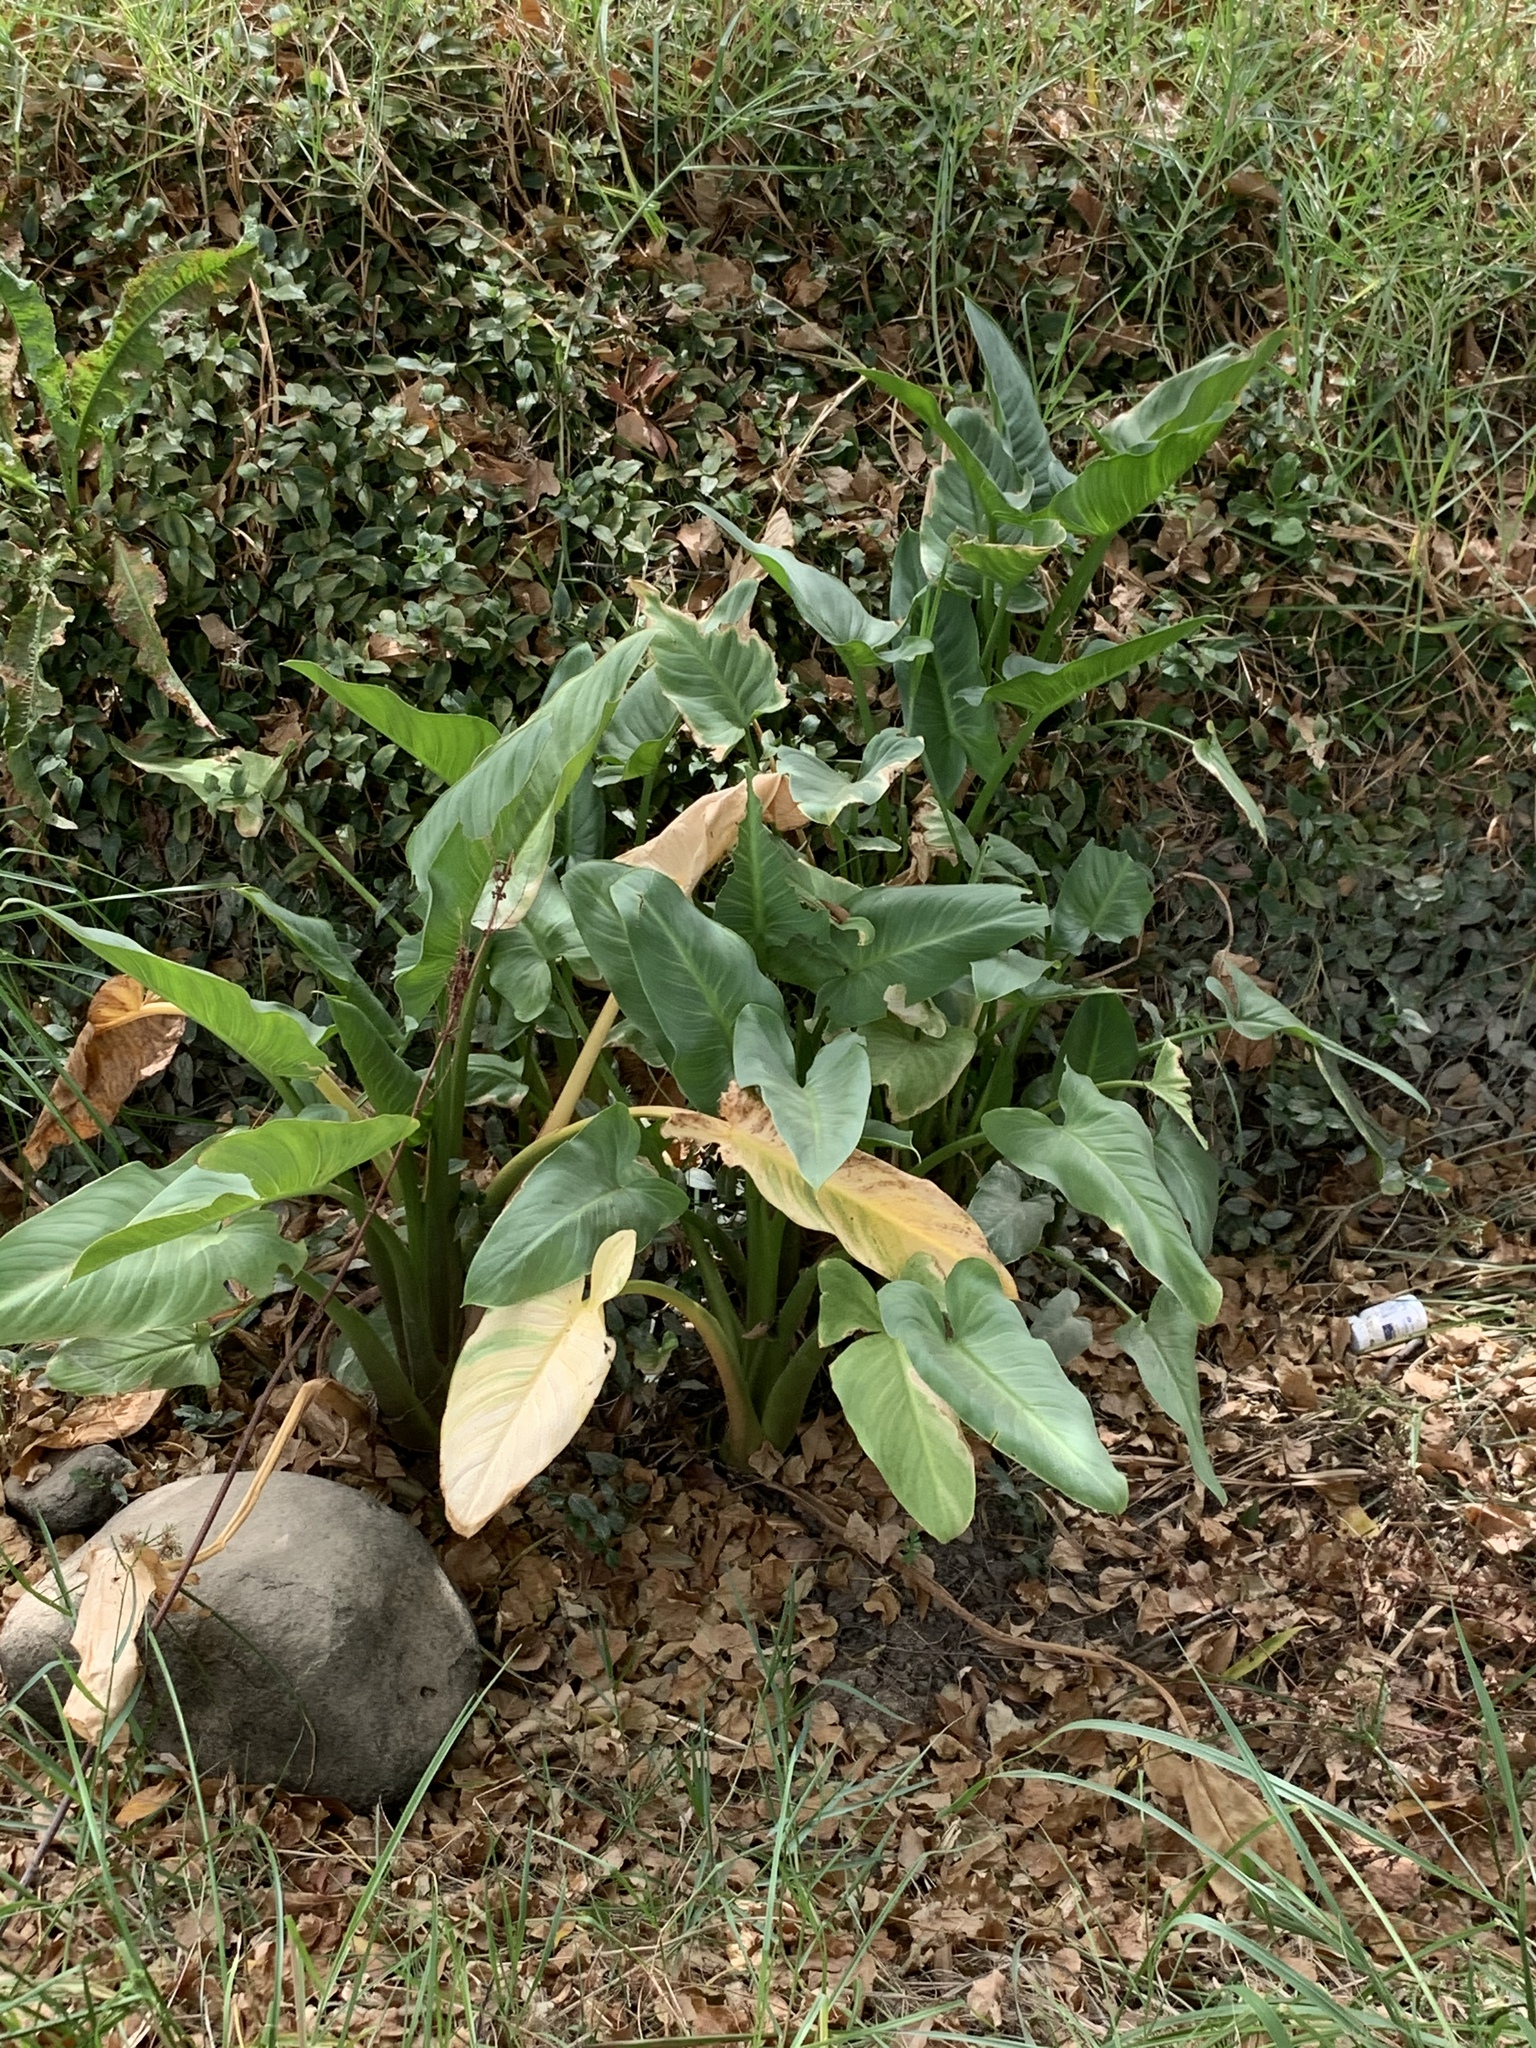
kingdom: Plantae
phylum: Tracheophyta
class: Liliopsida
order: Alismatales
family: Araceae
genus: Zantedeschia
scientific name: Zantedeschia aethiopica
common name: Altar-lily
